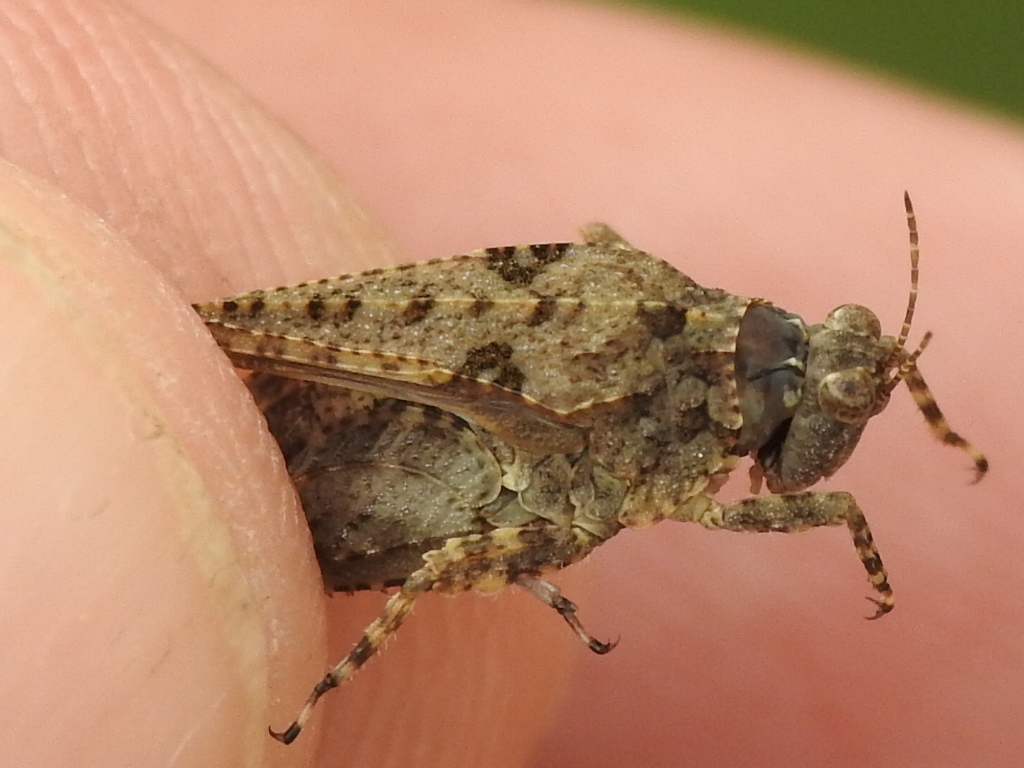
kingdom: Animalia
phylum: Arthropoda
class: Insecta
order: Orthoptera
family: Tetrigidae
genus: Paratettix
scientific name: Paratettix mexicanus
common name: Mexican pygmy grasshopper
